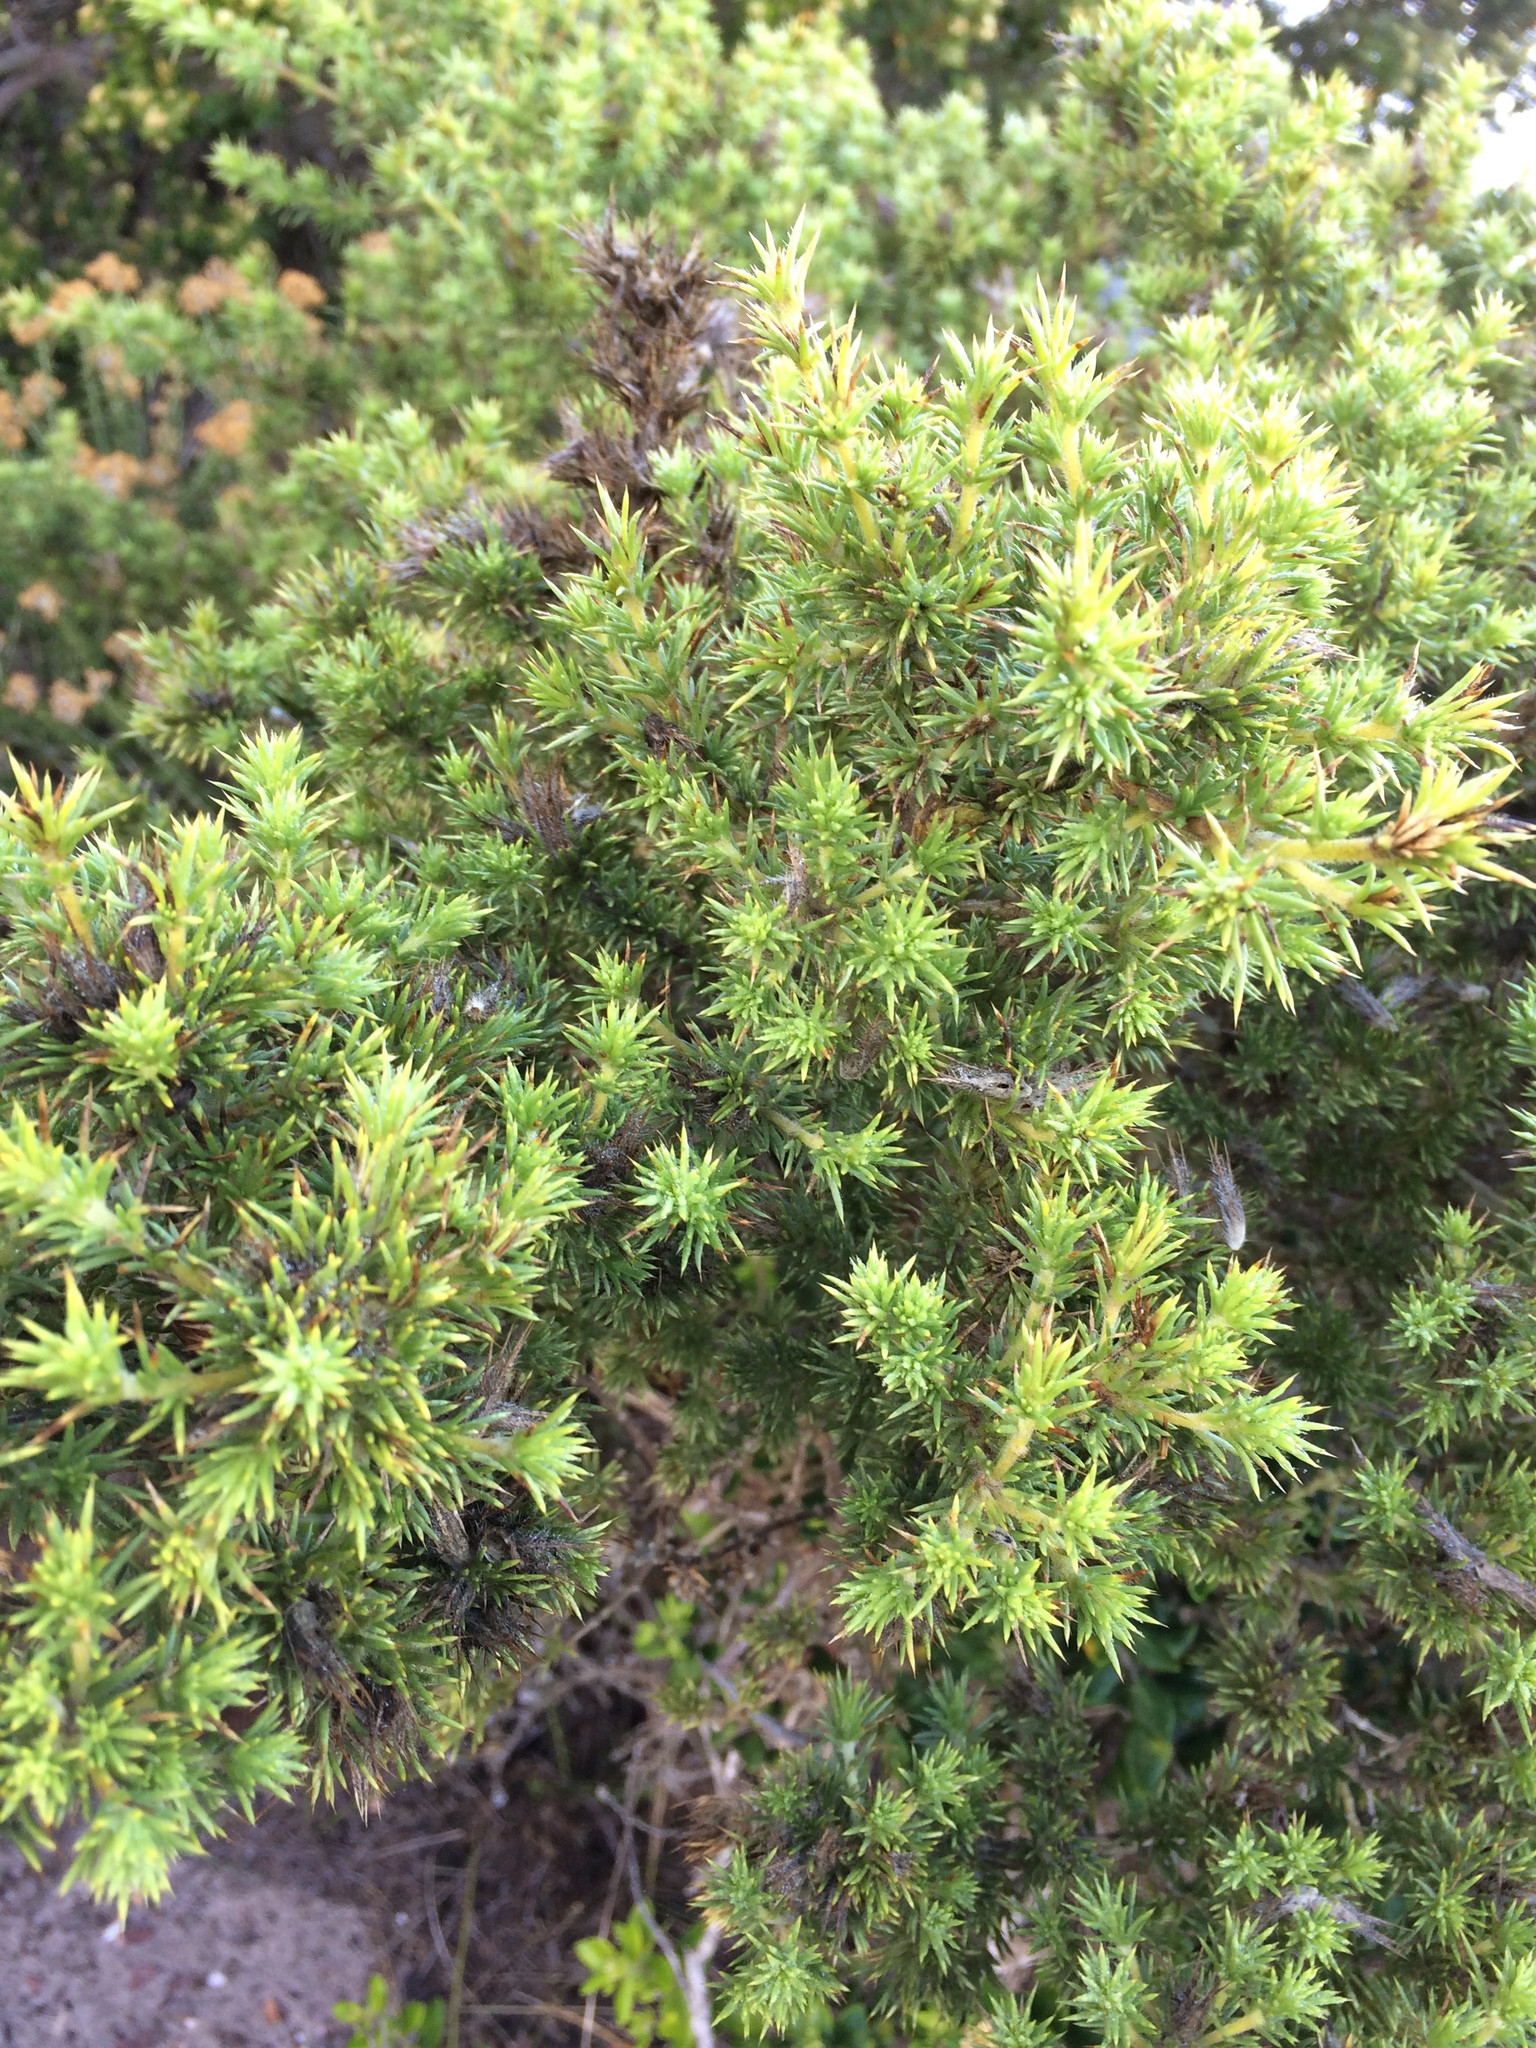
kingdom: Plantae
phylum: Tracheophyta
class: Magnoliopsida
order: Fabales
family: Fabaceae
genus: Aspalathus
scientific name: Aspalathus chenopoda
